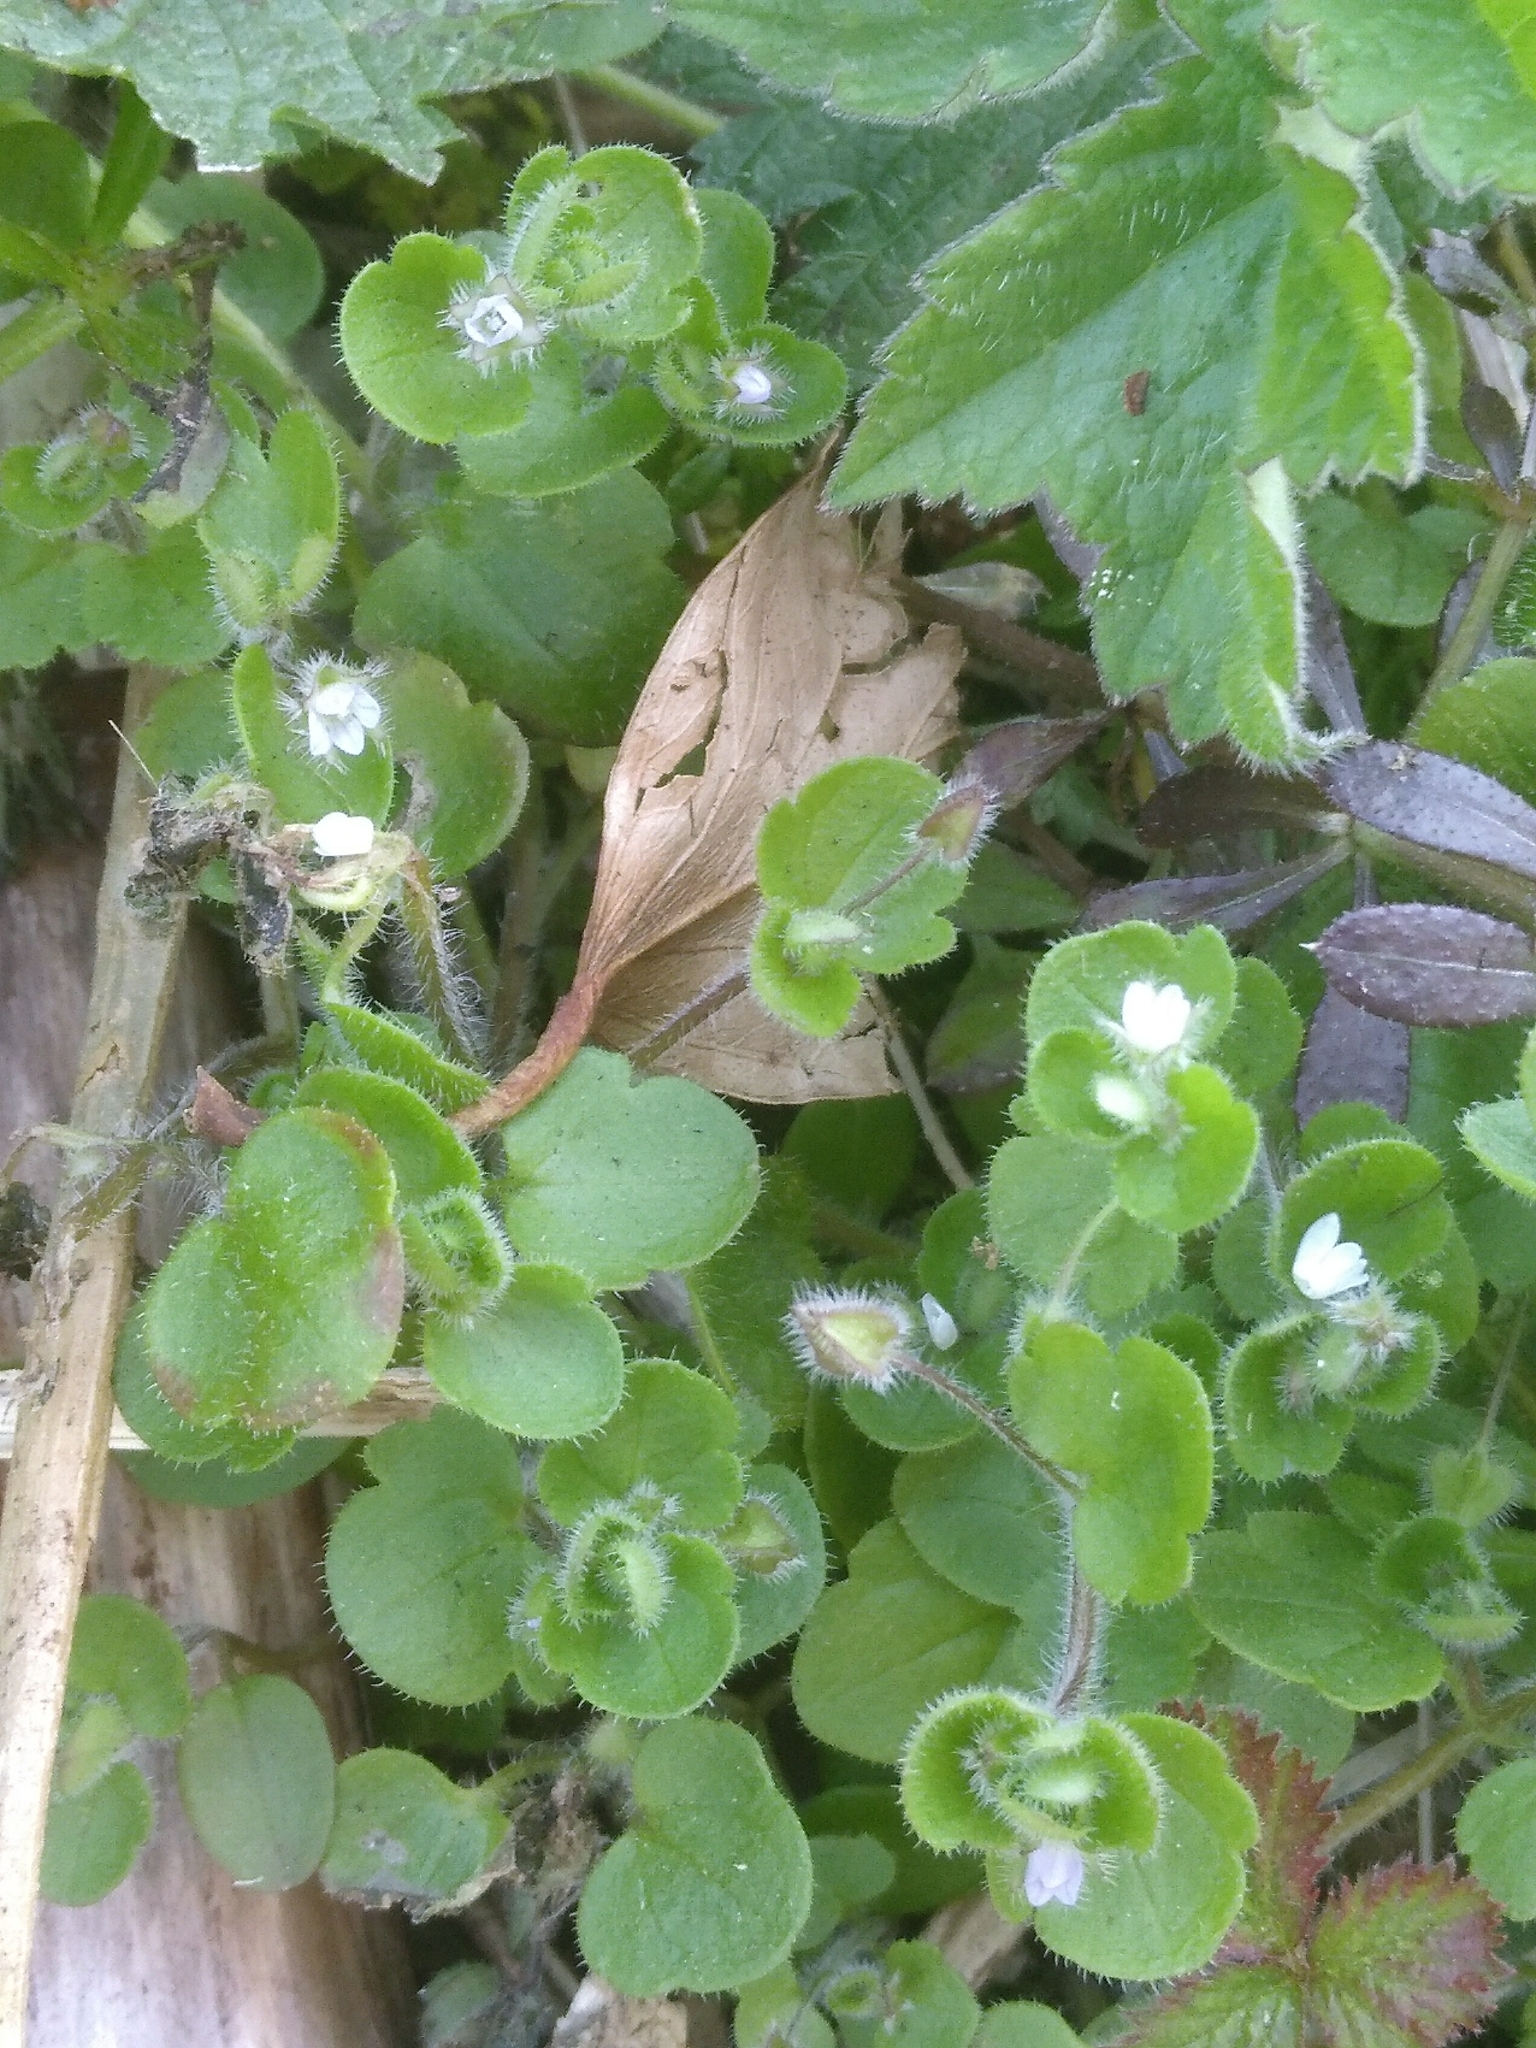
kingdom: Plantae
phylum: Tracheophyta
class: Magnoliopsida
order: Lamiales
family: Plantaginaceae
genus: Veronica
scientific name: Veronica sublobata
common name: False ivy-leaved speedwell
